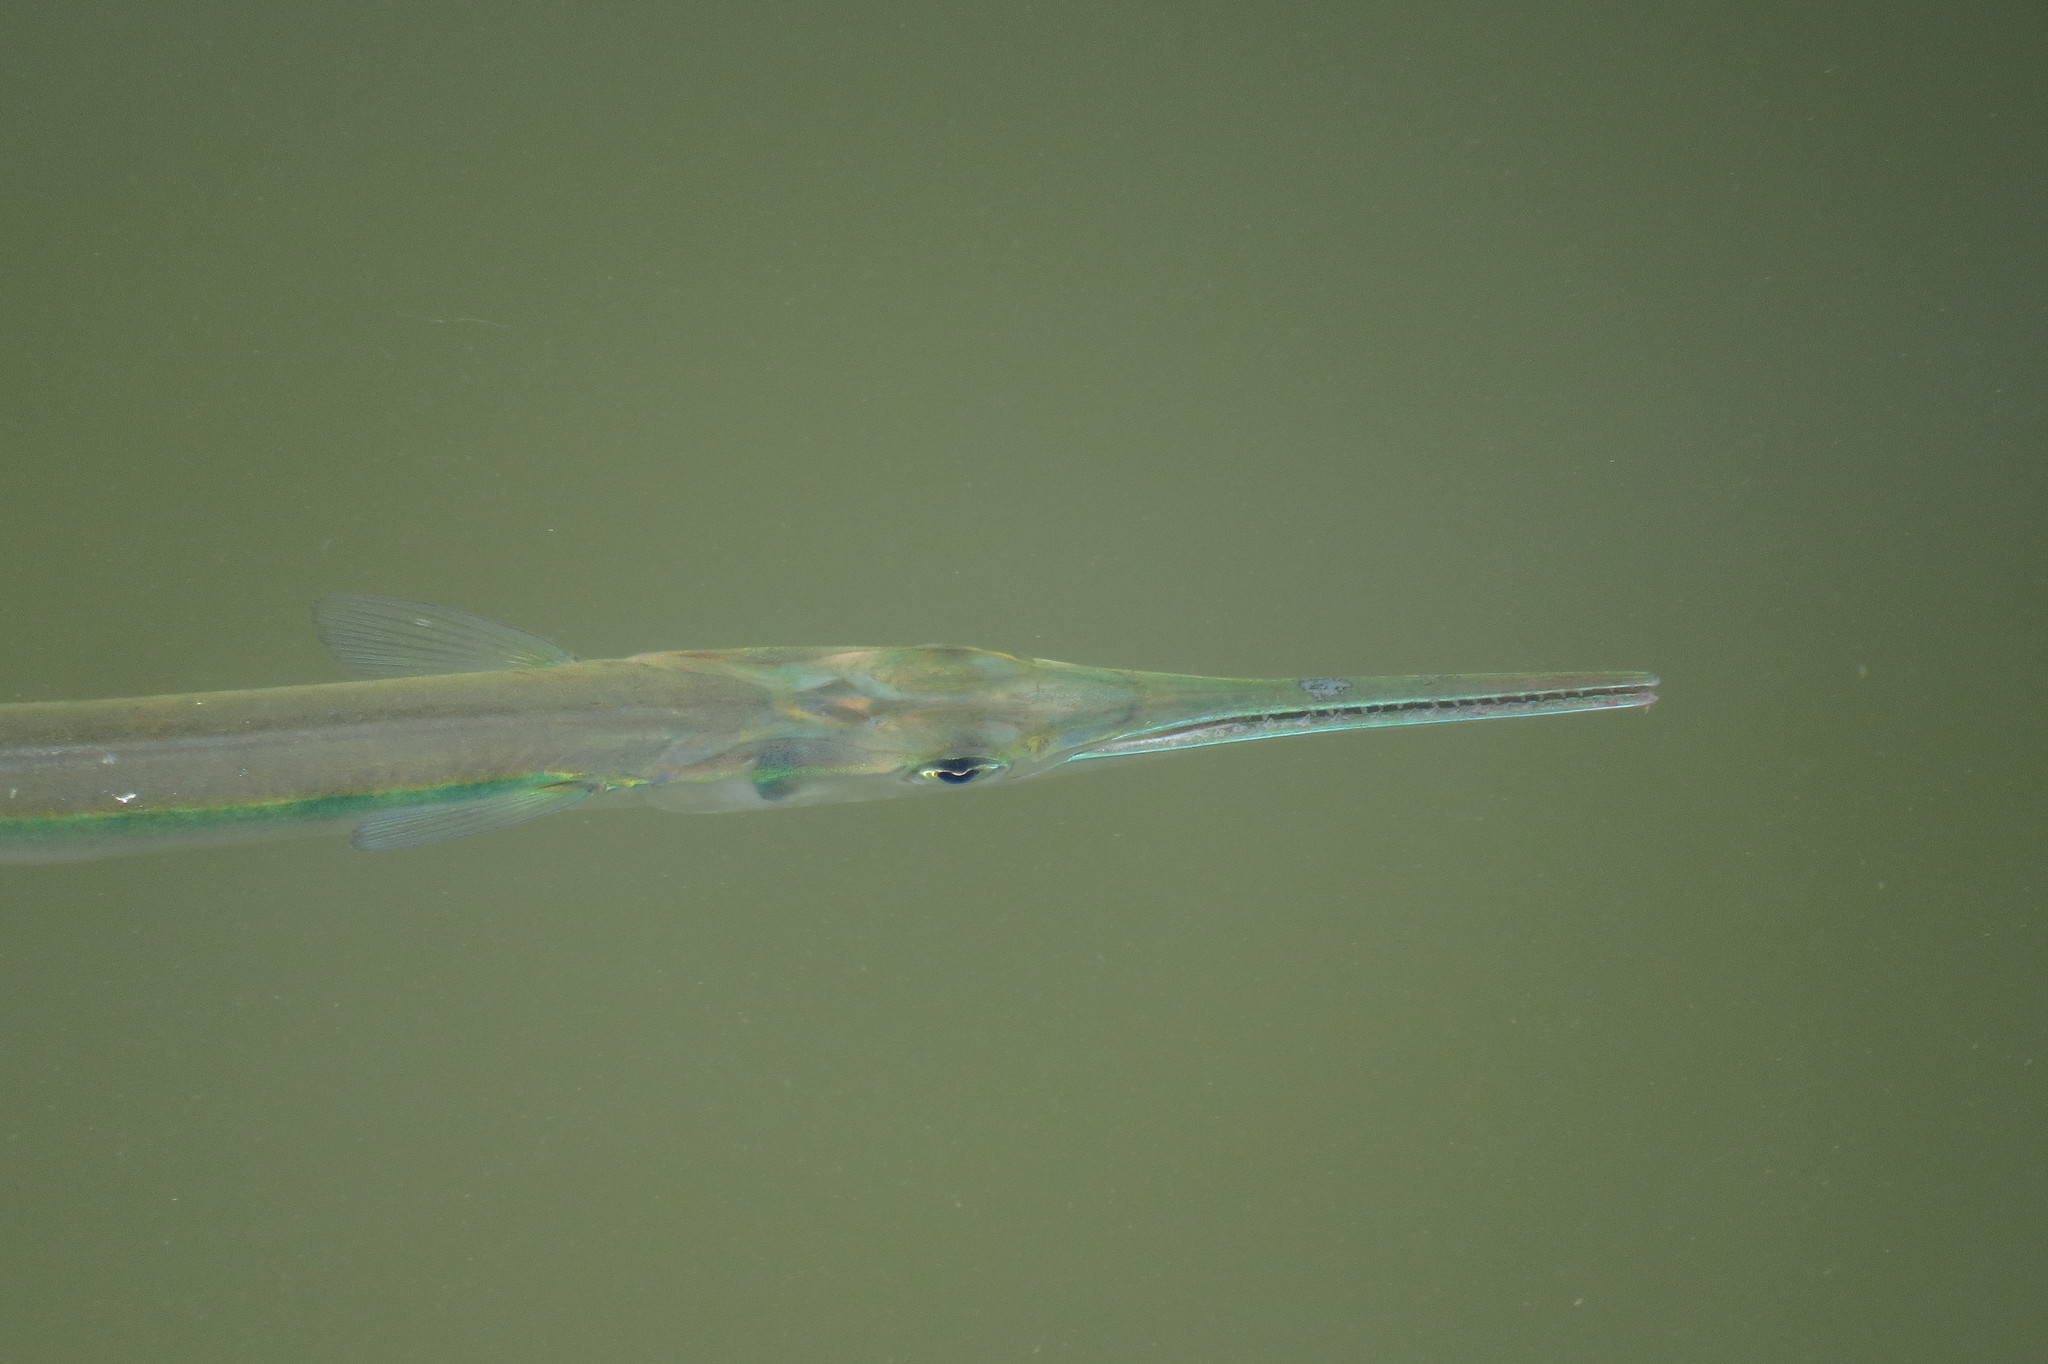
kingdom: Animalia
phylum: Chordata
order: Beloniformes
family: Belonidae
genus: Tylosurus
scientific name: Tylosurus crocodilus
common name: Houndfish
